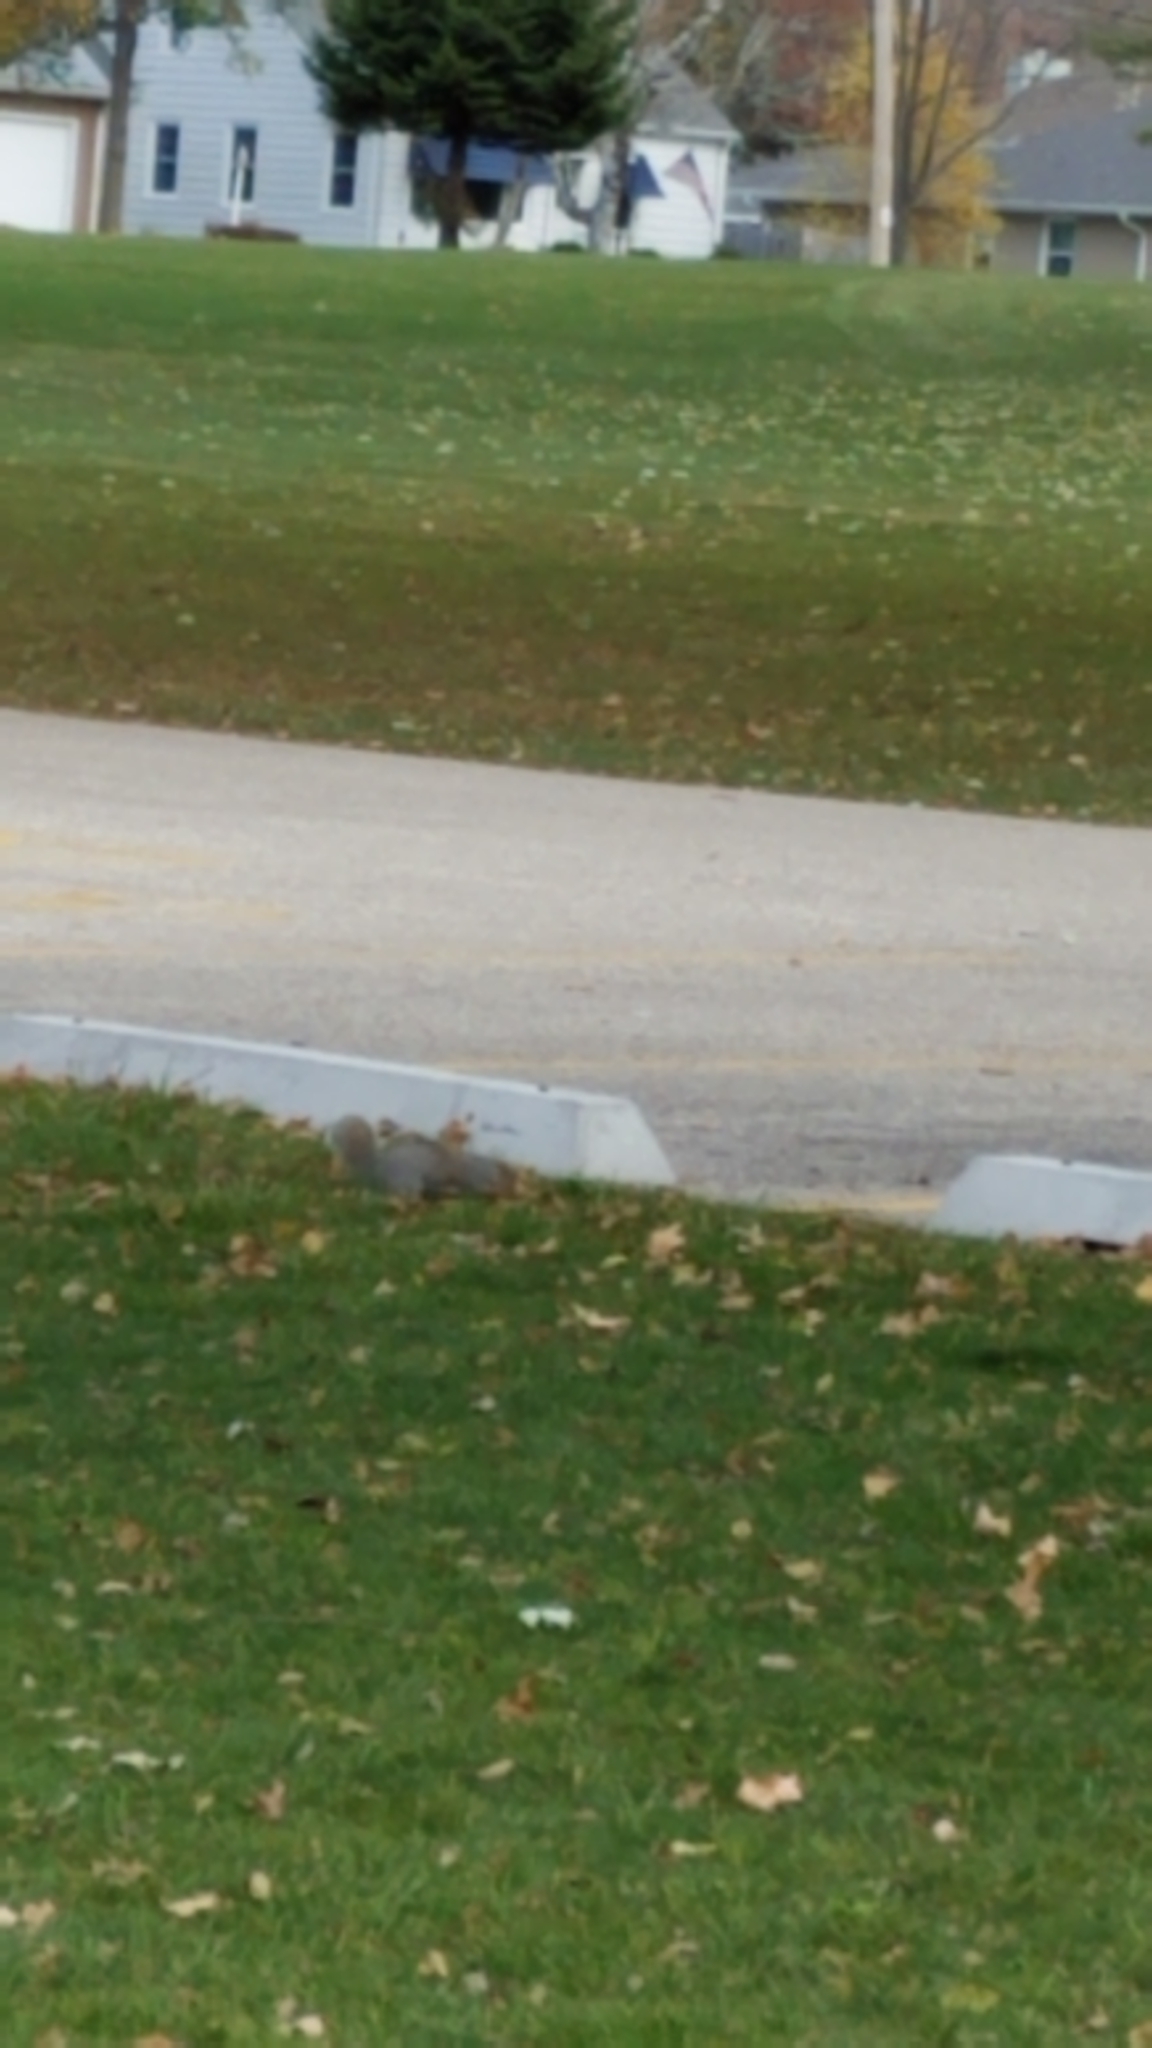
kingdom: Animalia
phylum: Chordata
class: Mammalia
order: Rodentia
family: Sciuridae
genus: Sciurus
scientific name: Sciurus carolinensis
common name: Eastern gray squirrel
